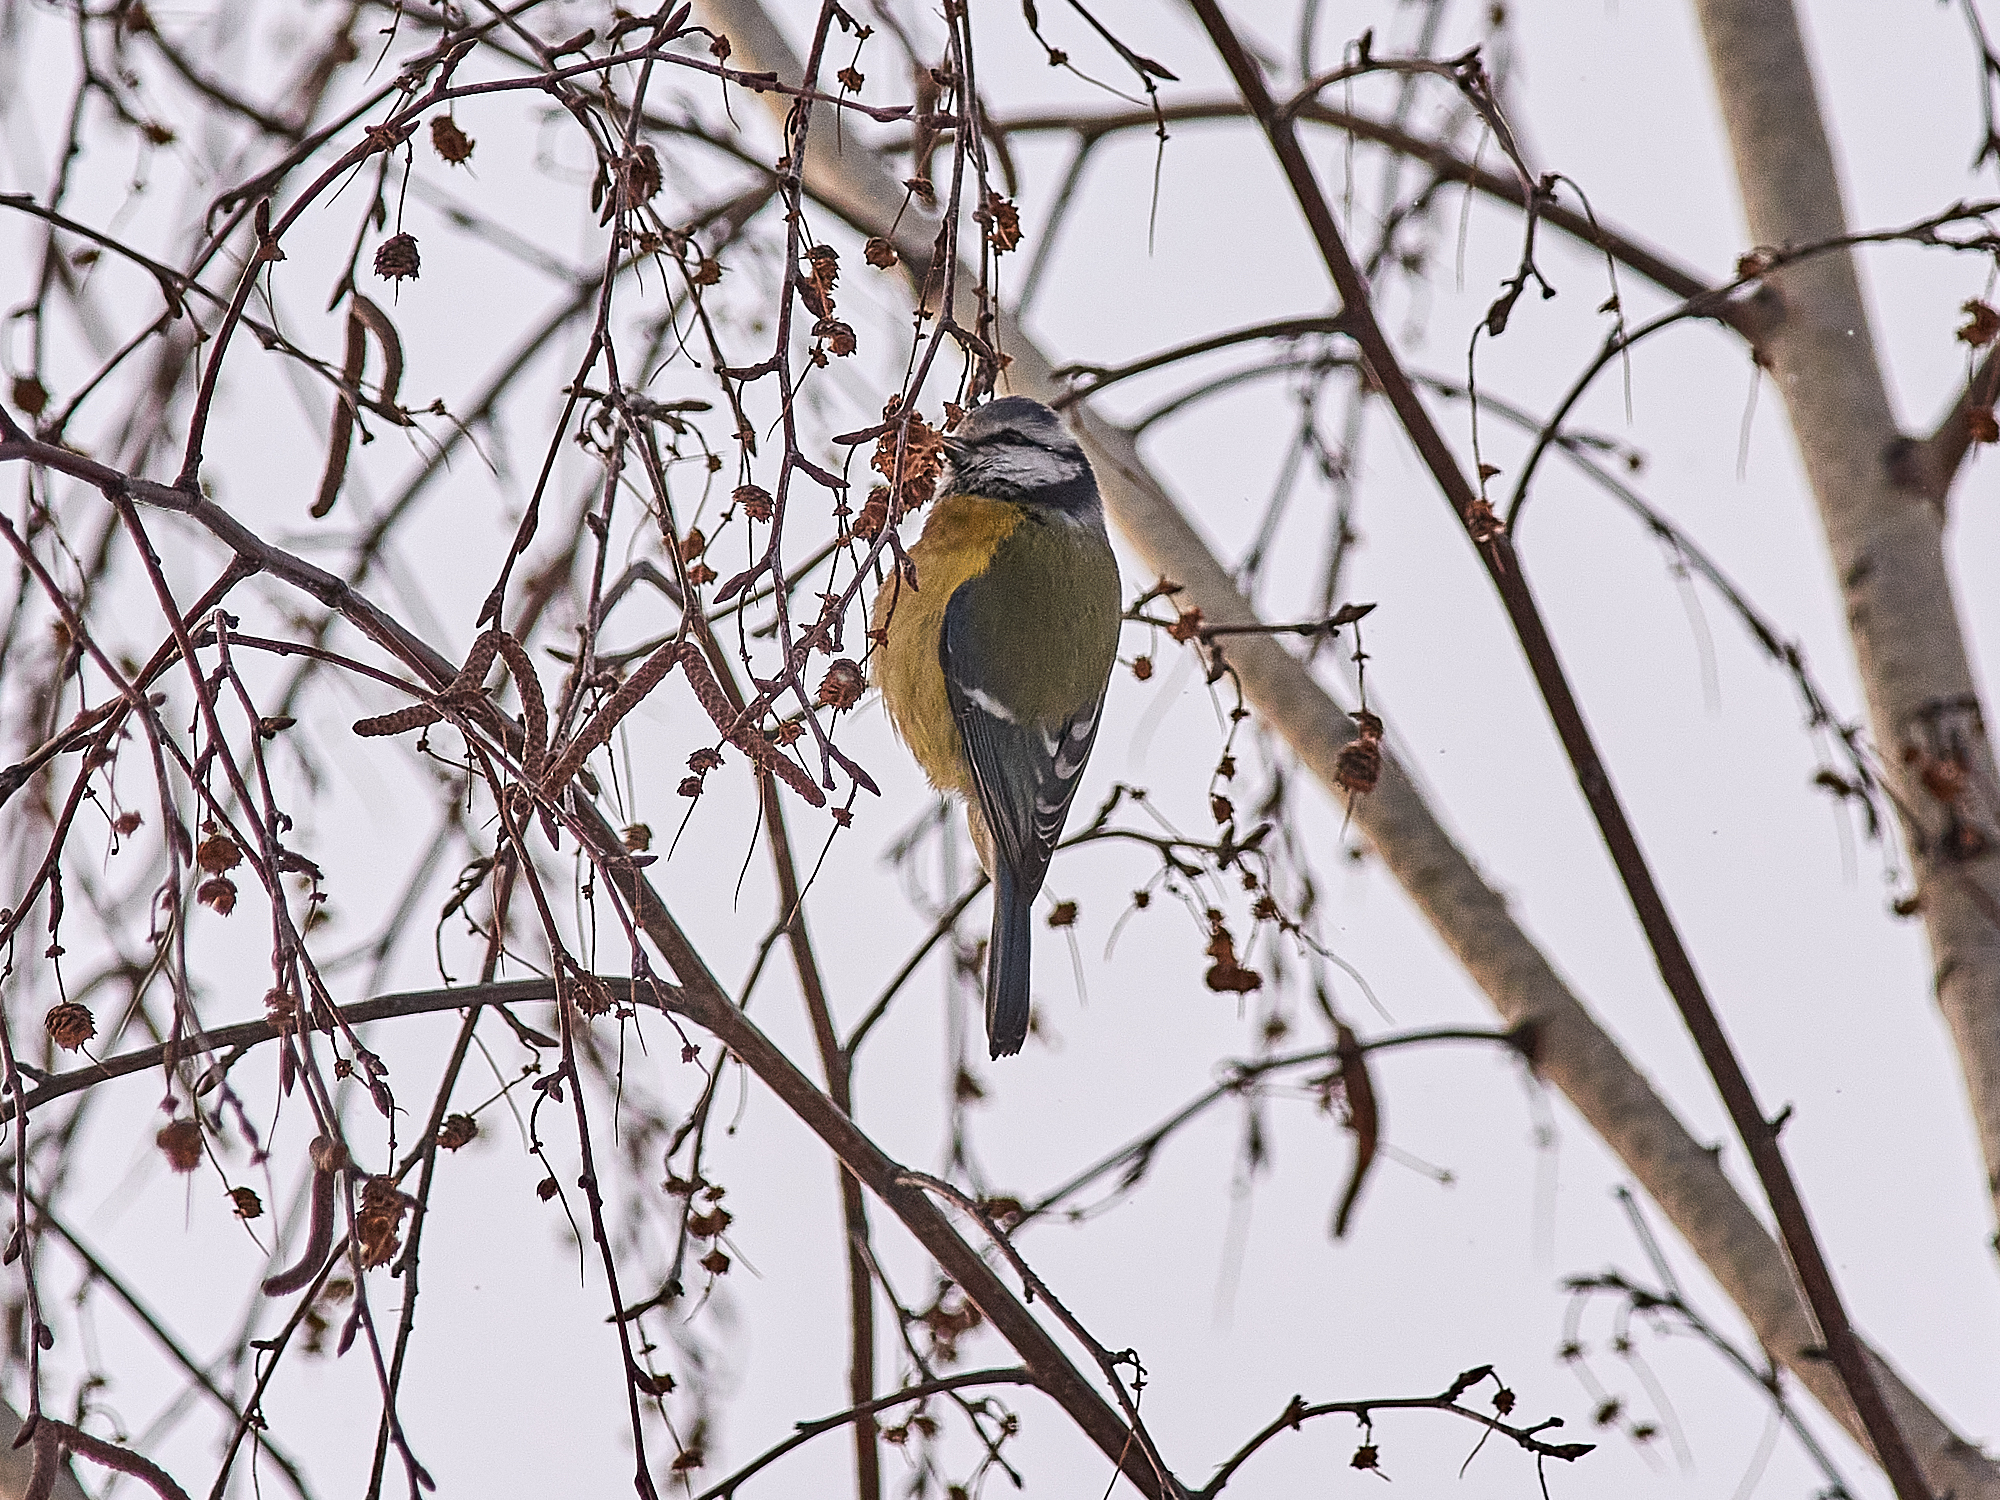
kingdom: Animalia
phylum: Chordata
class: Aves
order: Passeriformes
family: Paridae
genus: Cyanistes
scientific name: Cyanistes caeruleus
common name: Eurasian blue tit
